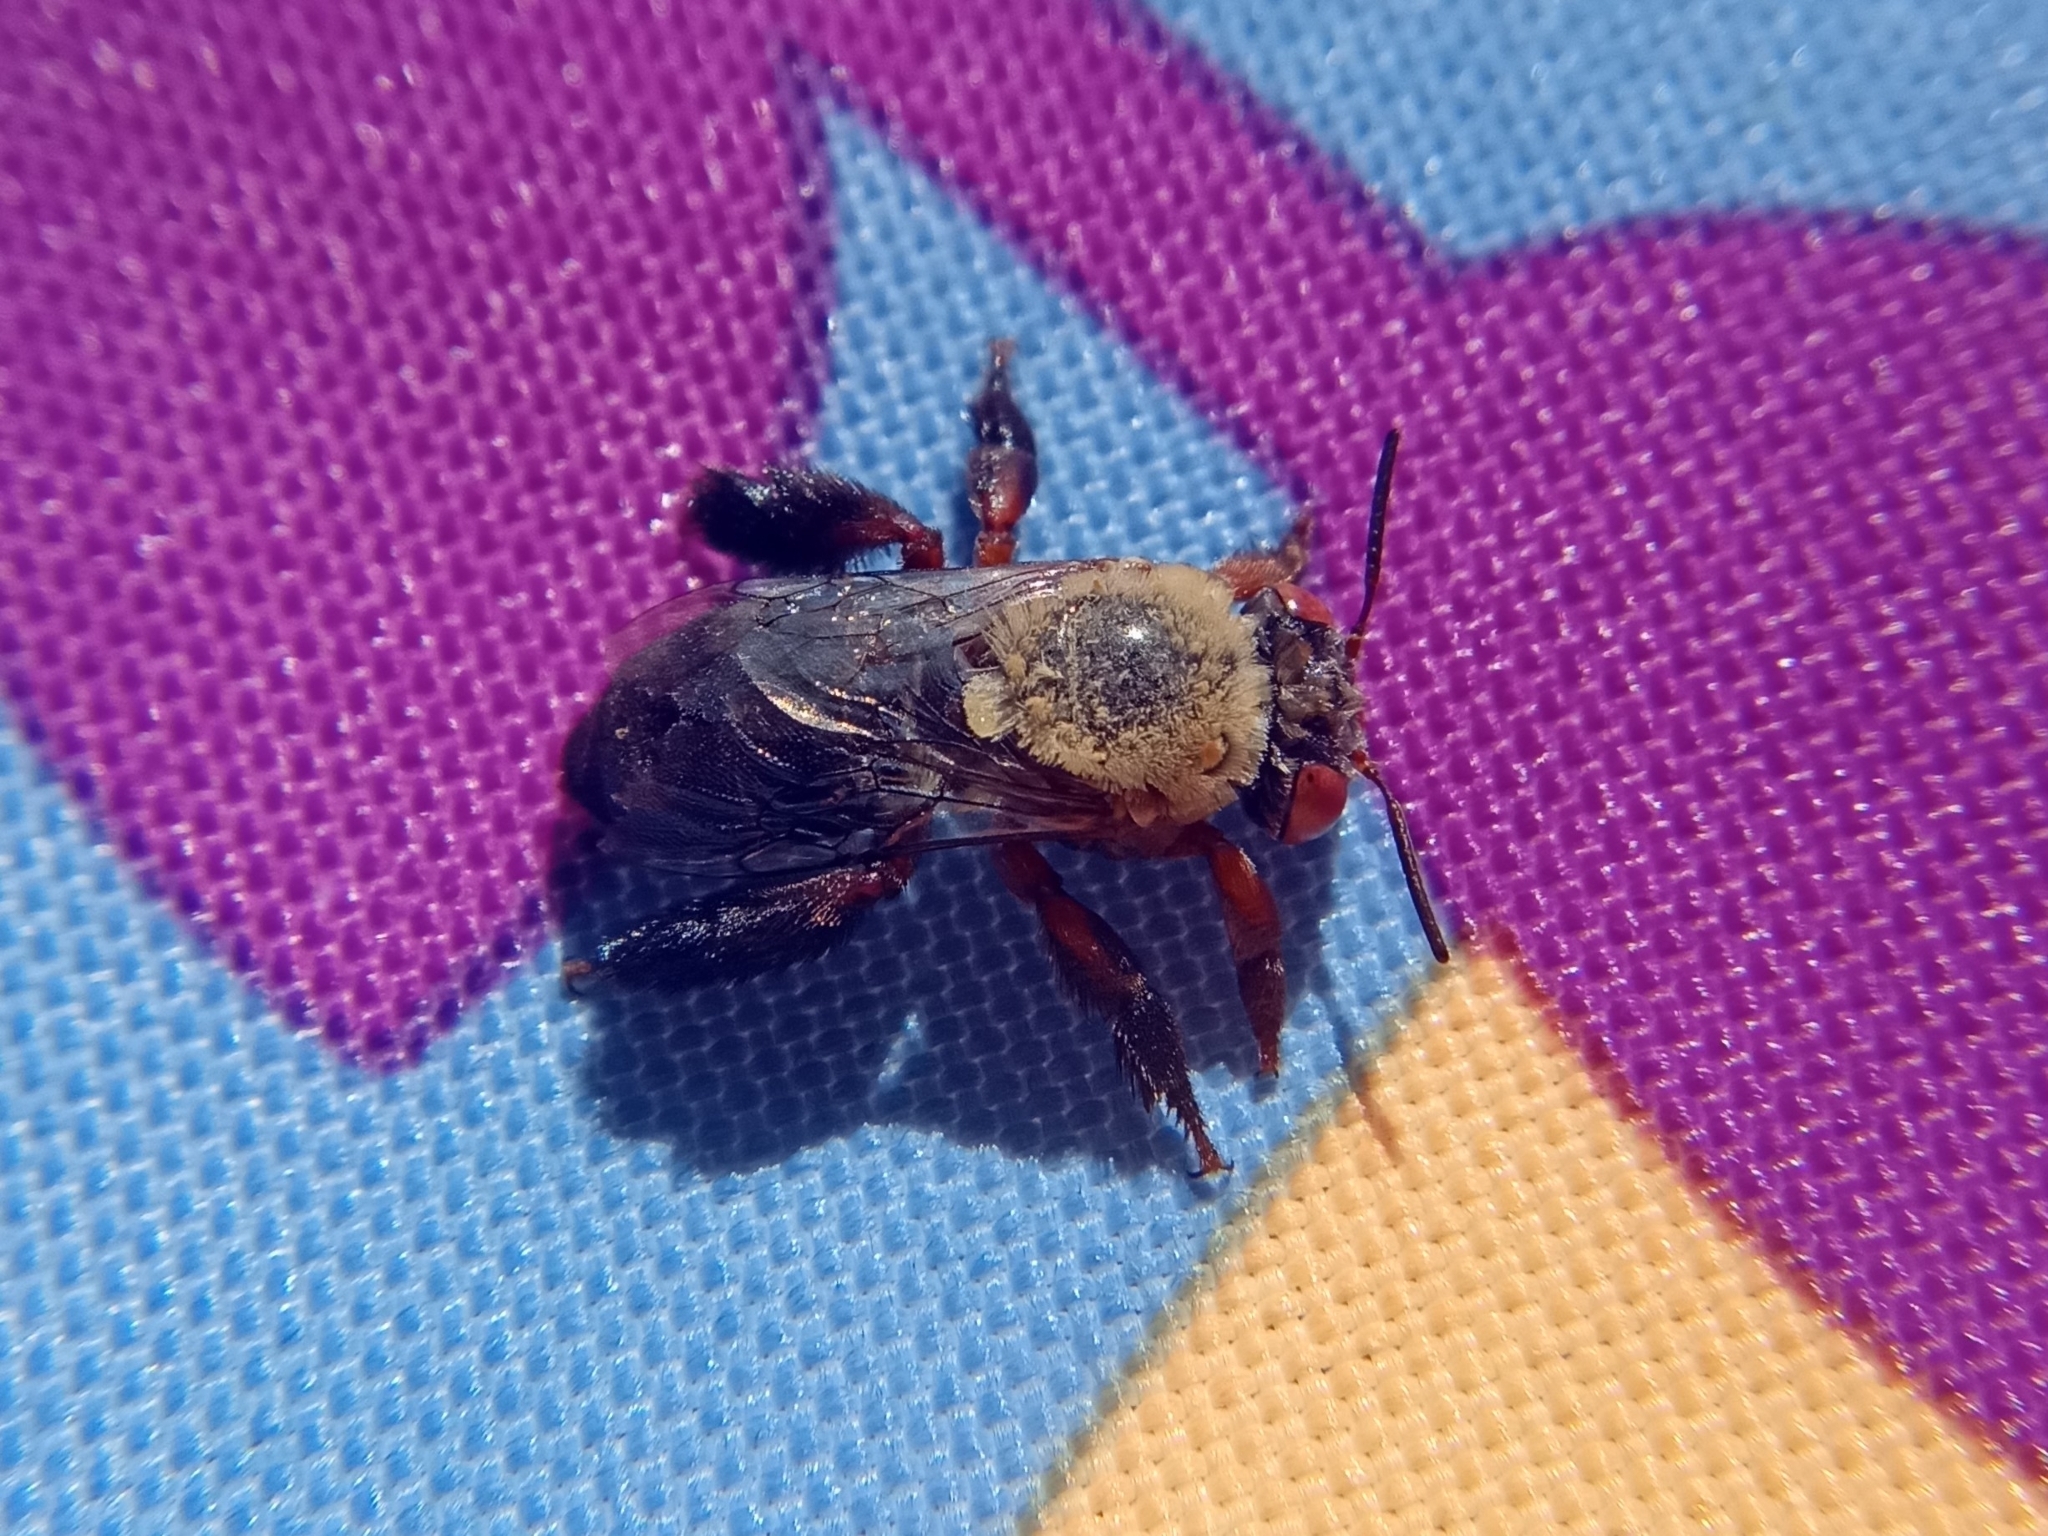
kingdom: Animalia
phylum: Arthropoda
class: Insecta
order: Hymenoptera
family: Apidae
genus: Centris
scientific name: Centris rhodopus
